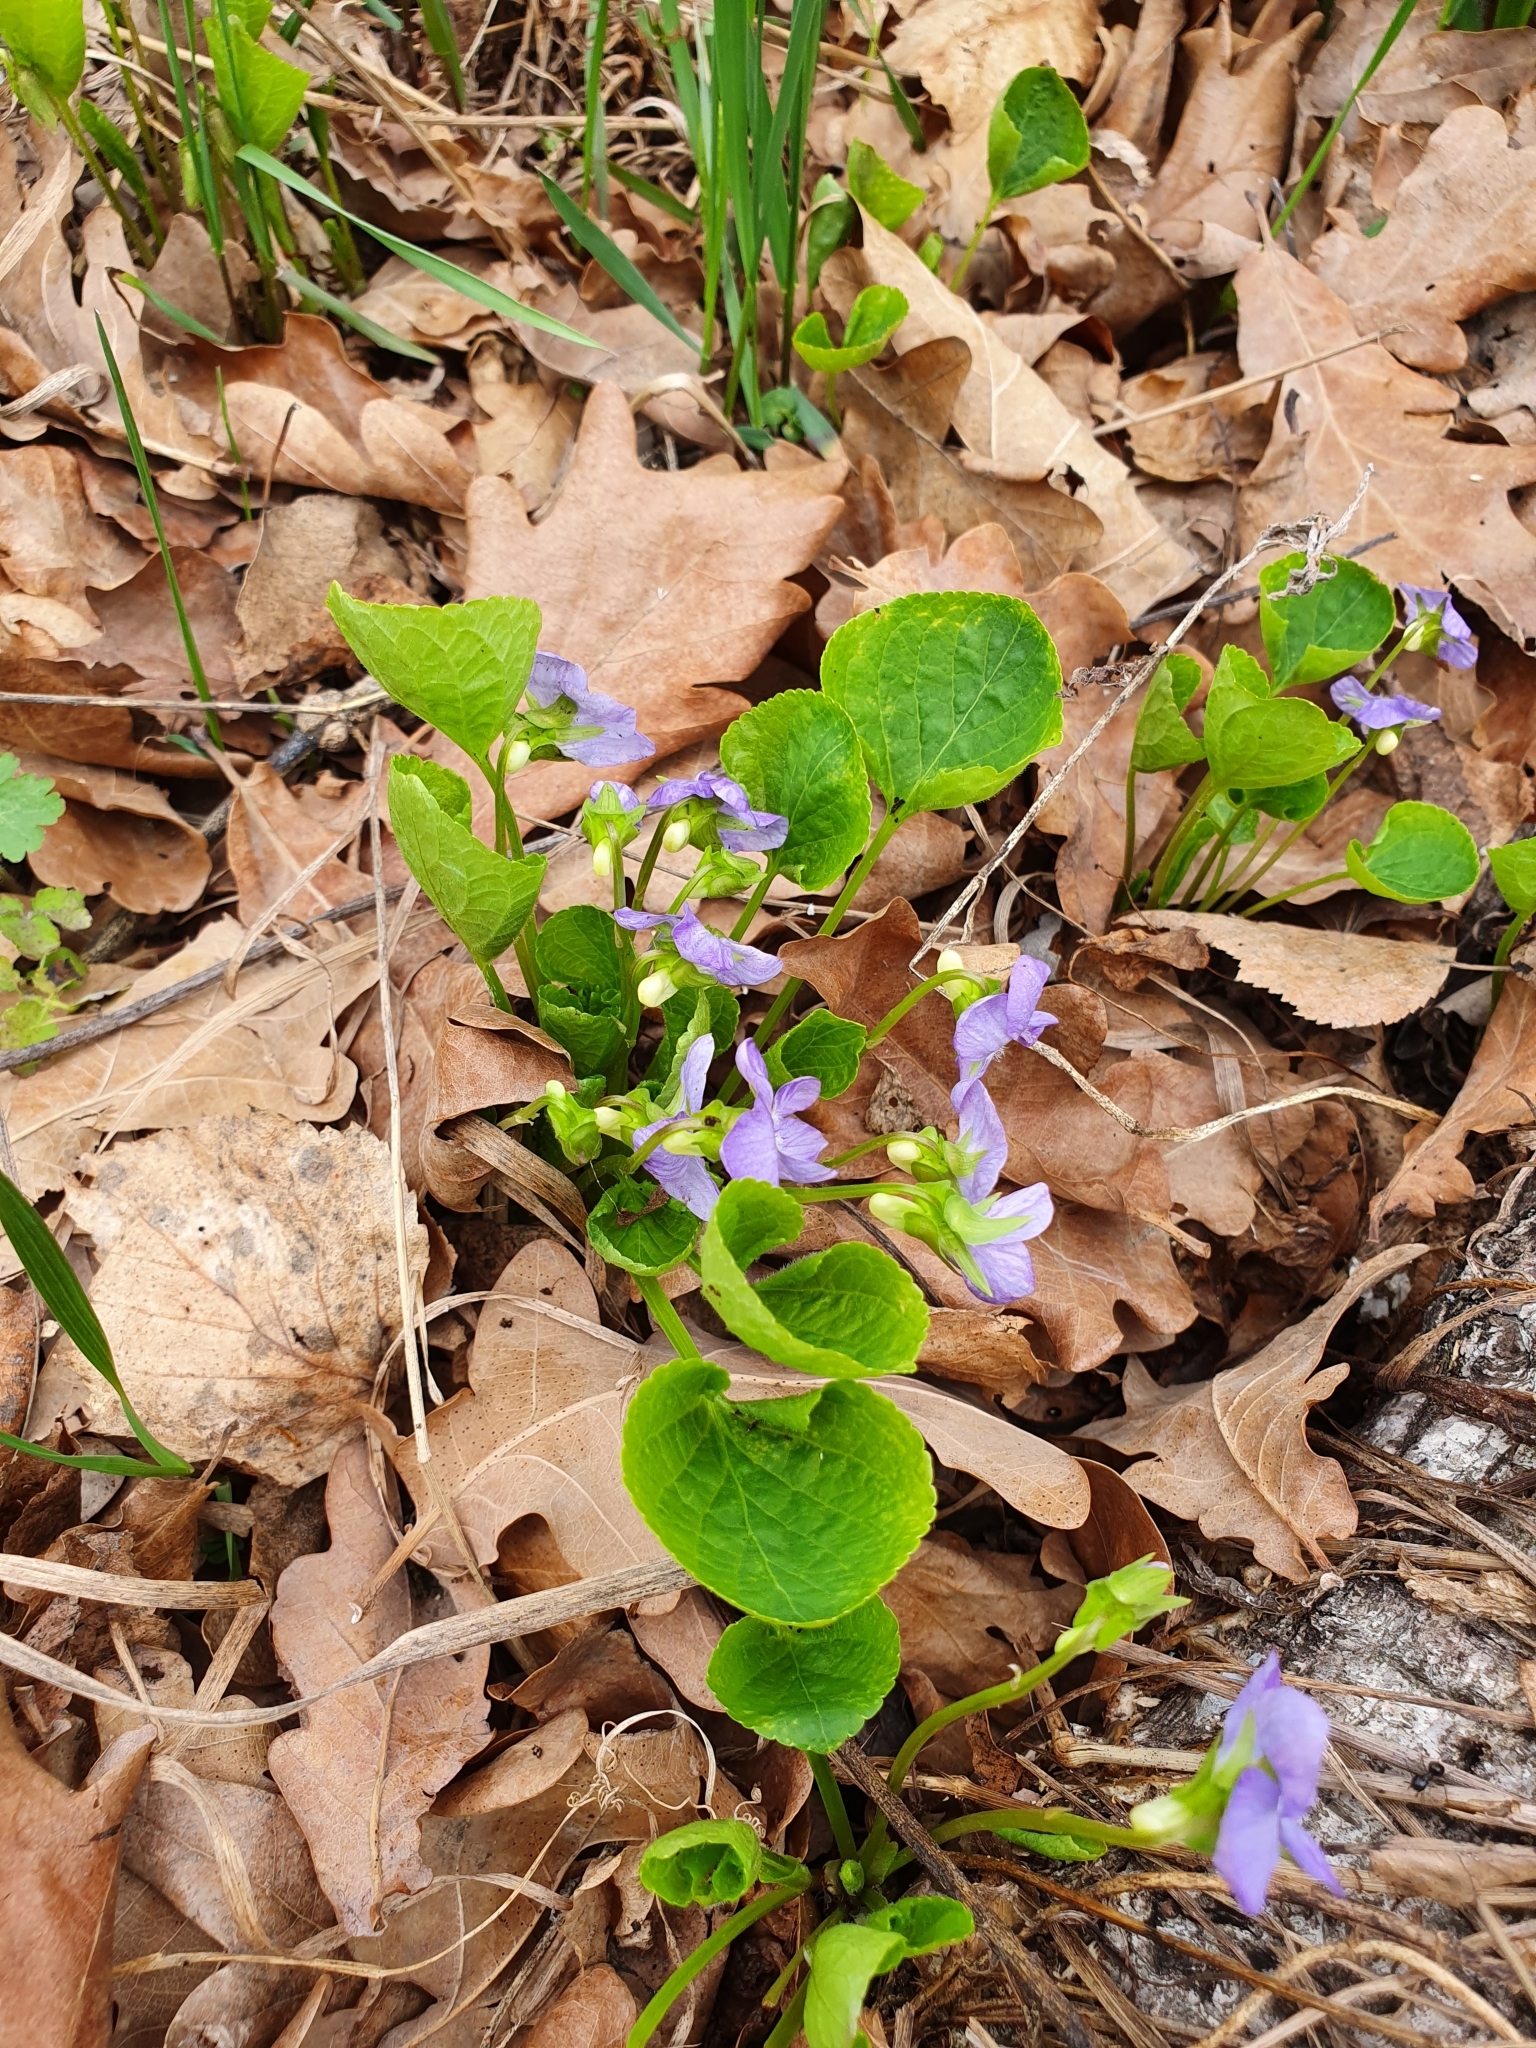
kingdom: Plantae
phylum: Tracheophyta
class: Magnoliopsida
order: Malpighiales
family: Violaceae
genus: Viola
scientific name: Viola mirabilis
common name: Wonder violet
